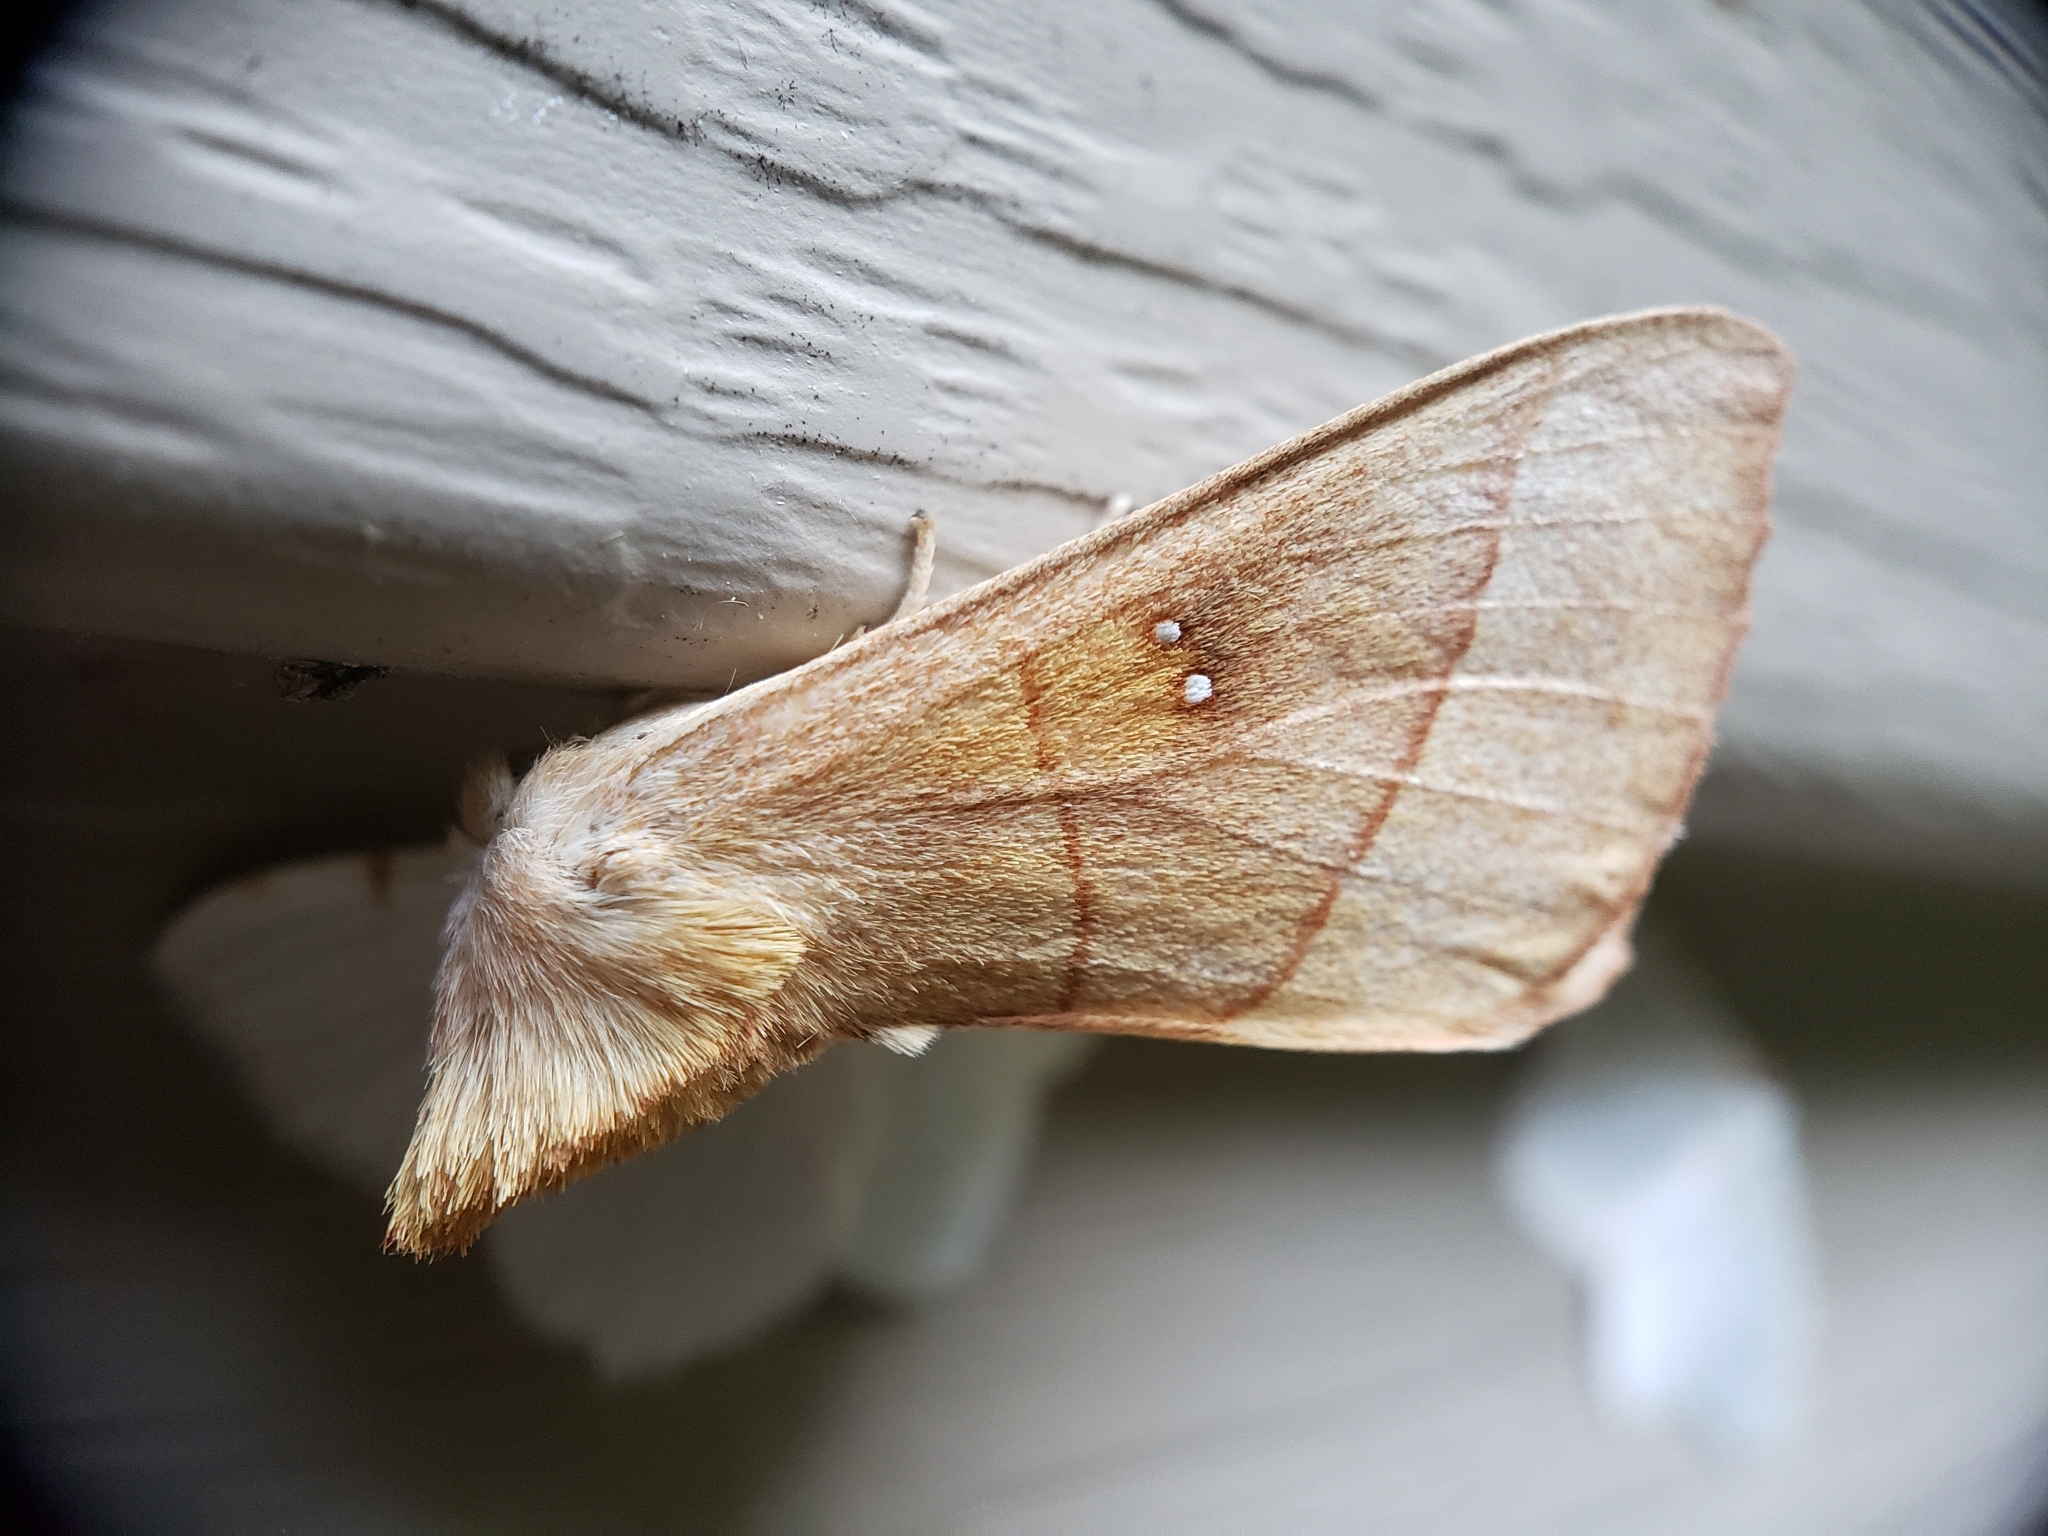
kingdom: Animalia
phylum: Arthropoda
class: Insecta
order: Lepidoptera
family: Notodontidae
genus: Nadata
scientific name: Nadata gibbosa
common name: White-dotted prominent
